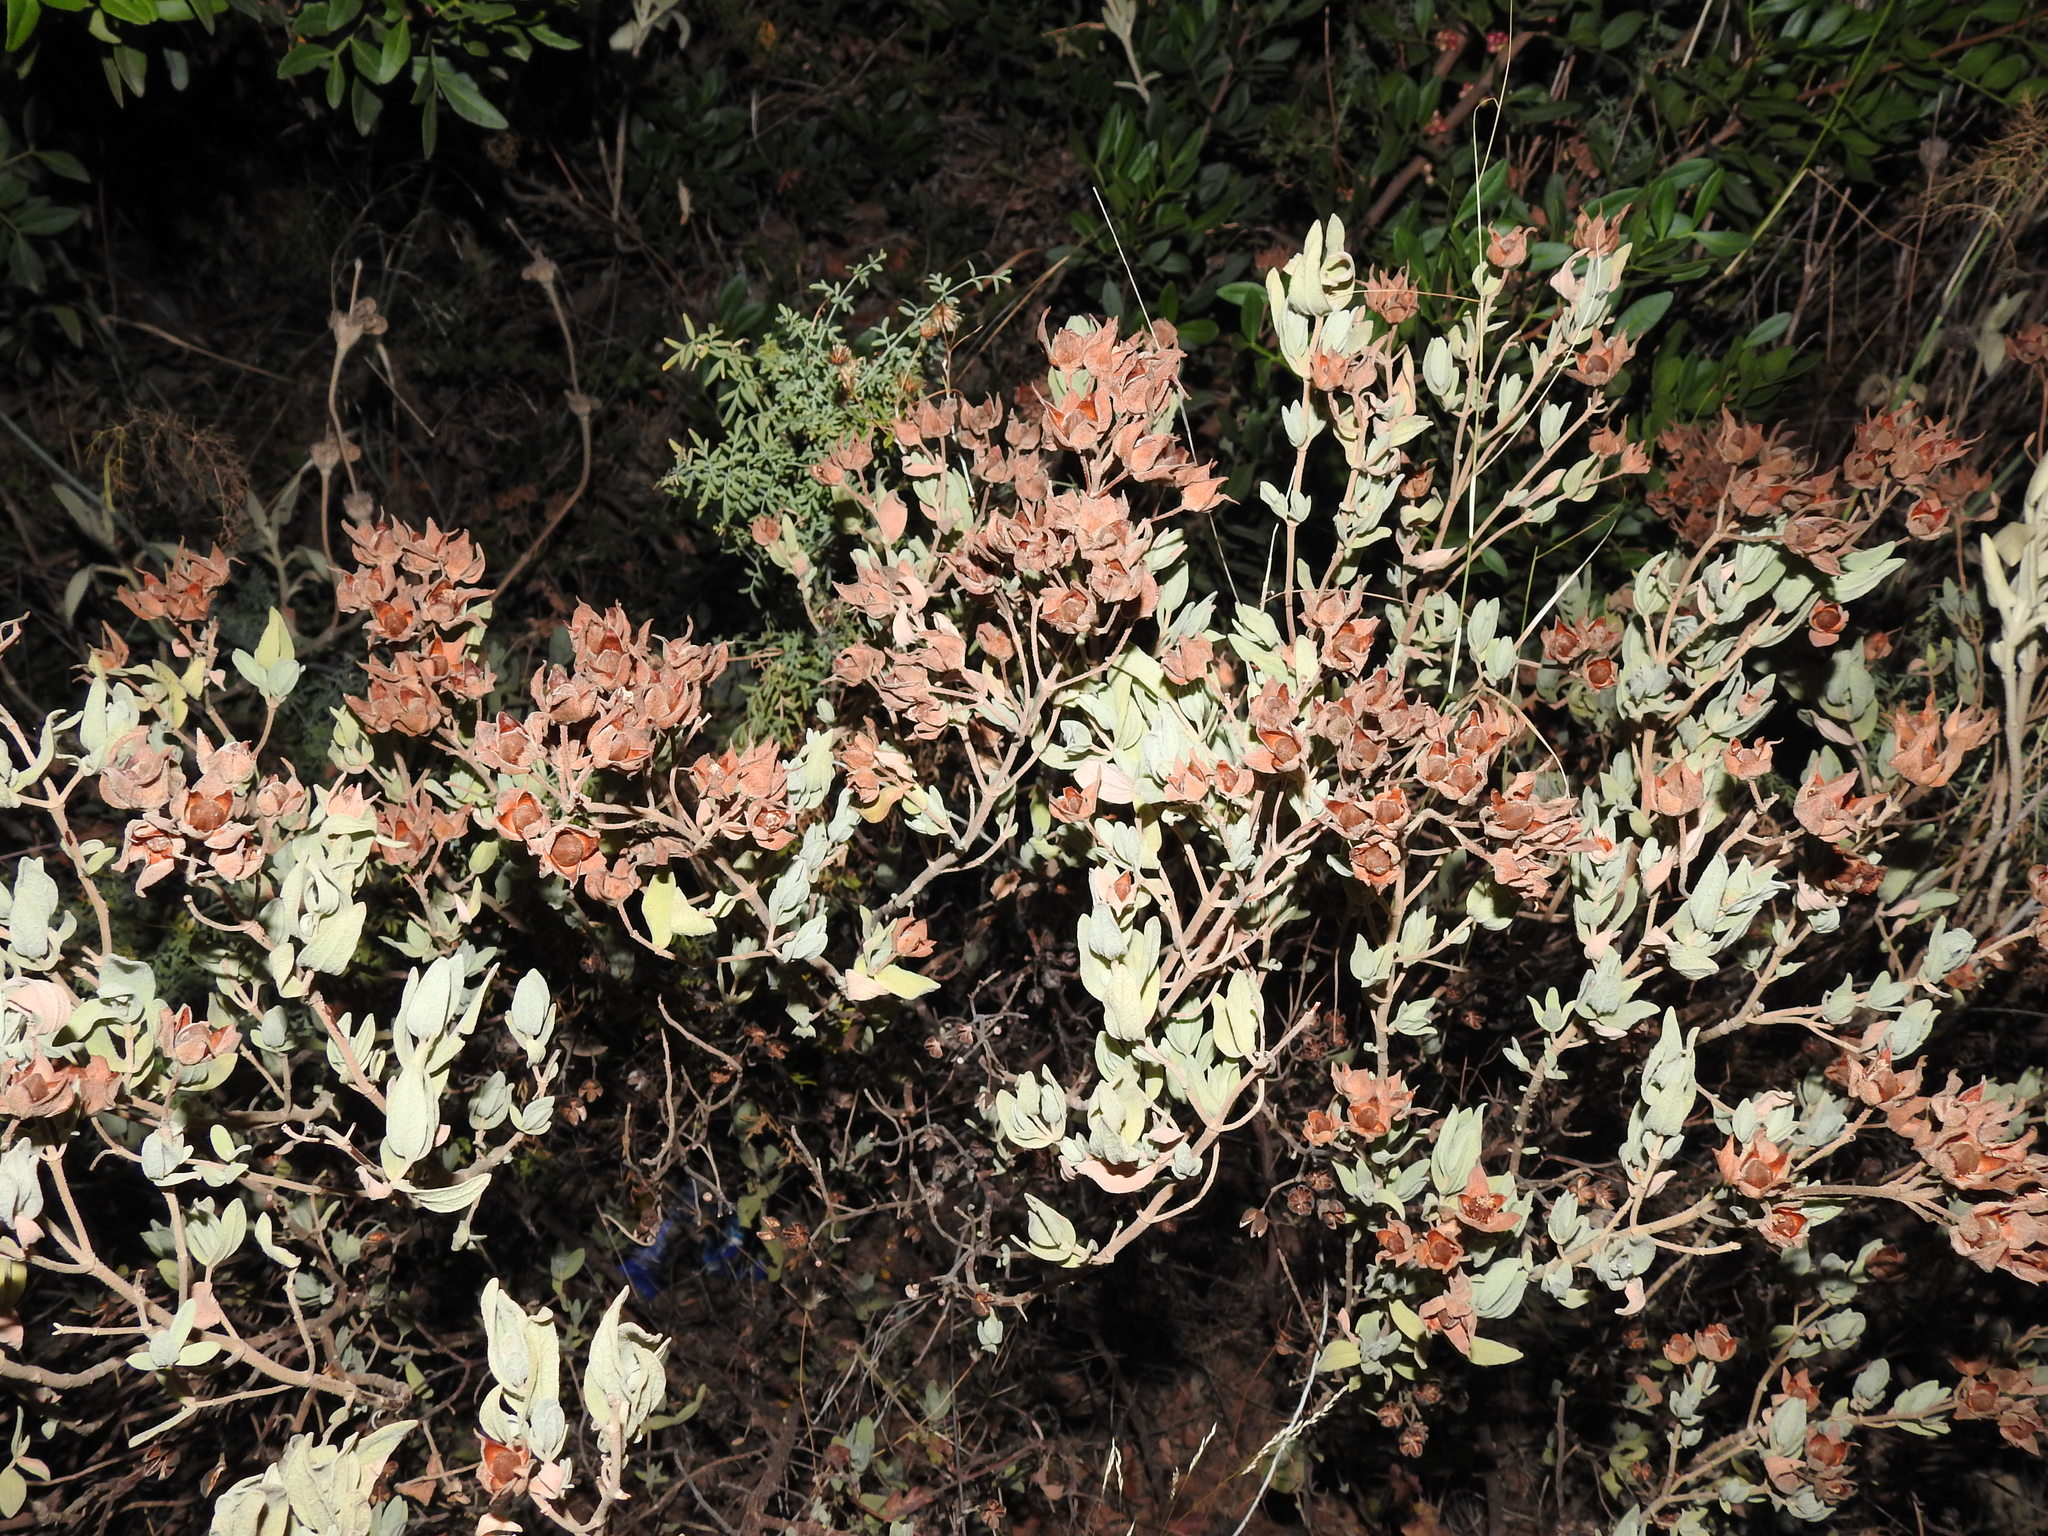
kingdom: Plantae
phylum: Tracheophyta
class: Magnoliopsida
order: Malvales
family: Cistaceae
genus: Cistus
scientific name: Cistus albidus
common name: White-leaf rock-rose
